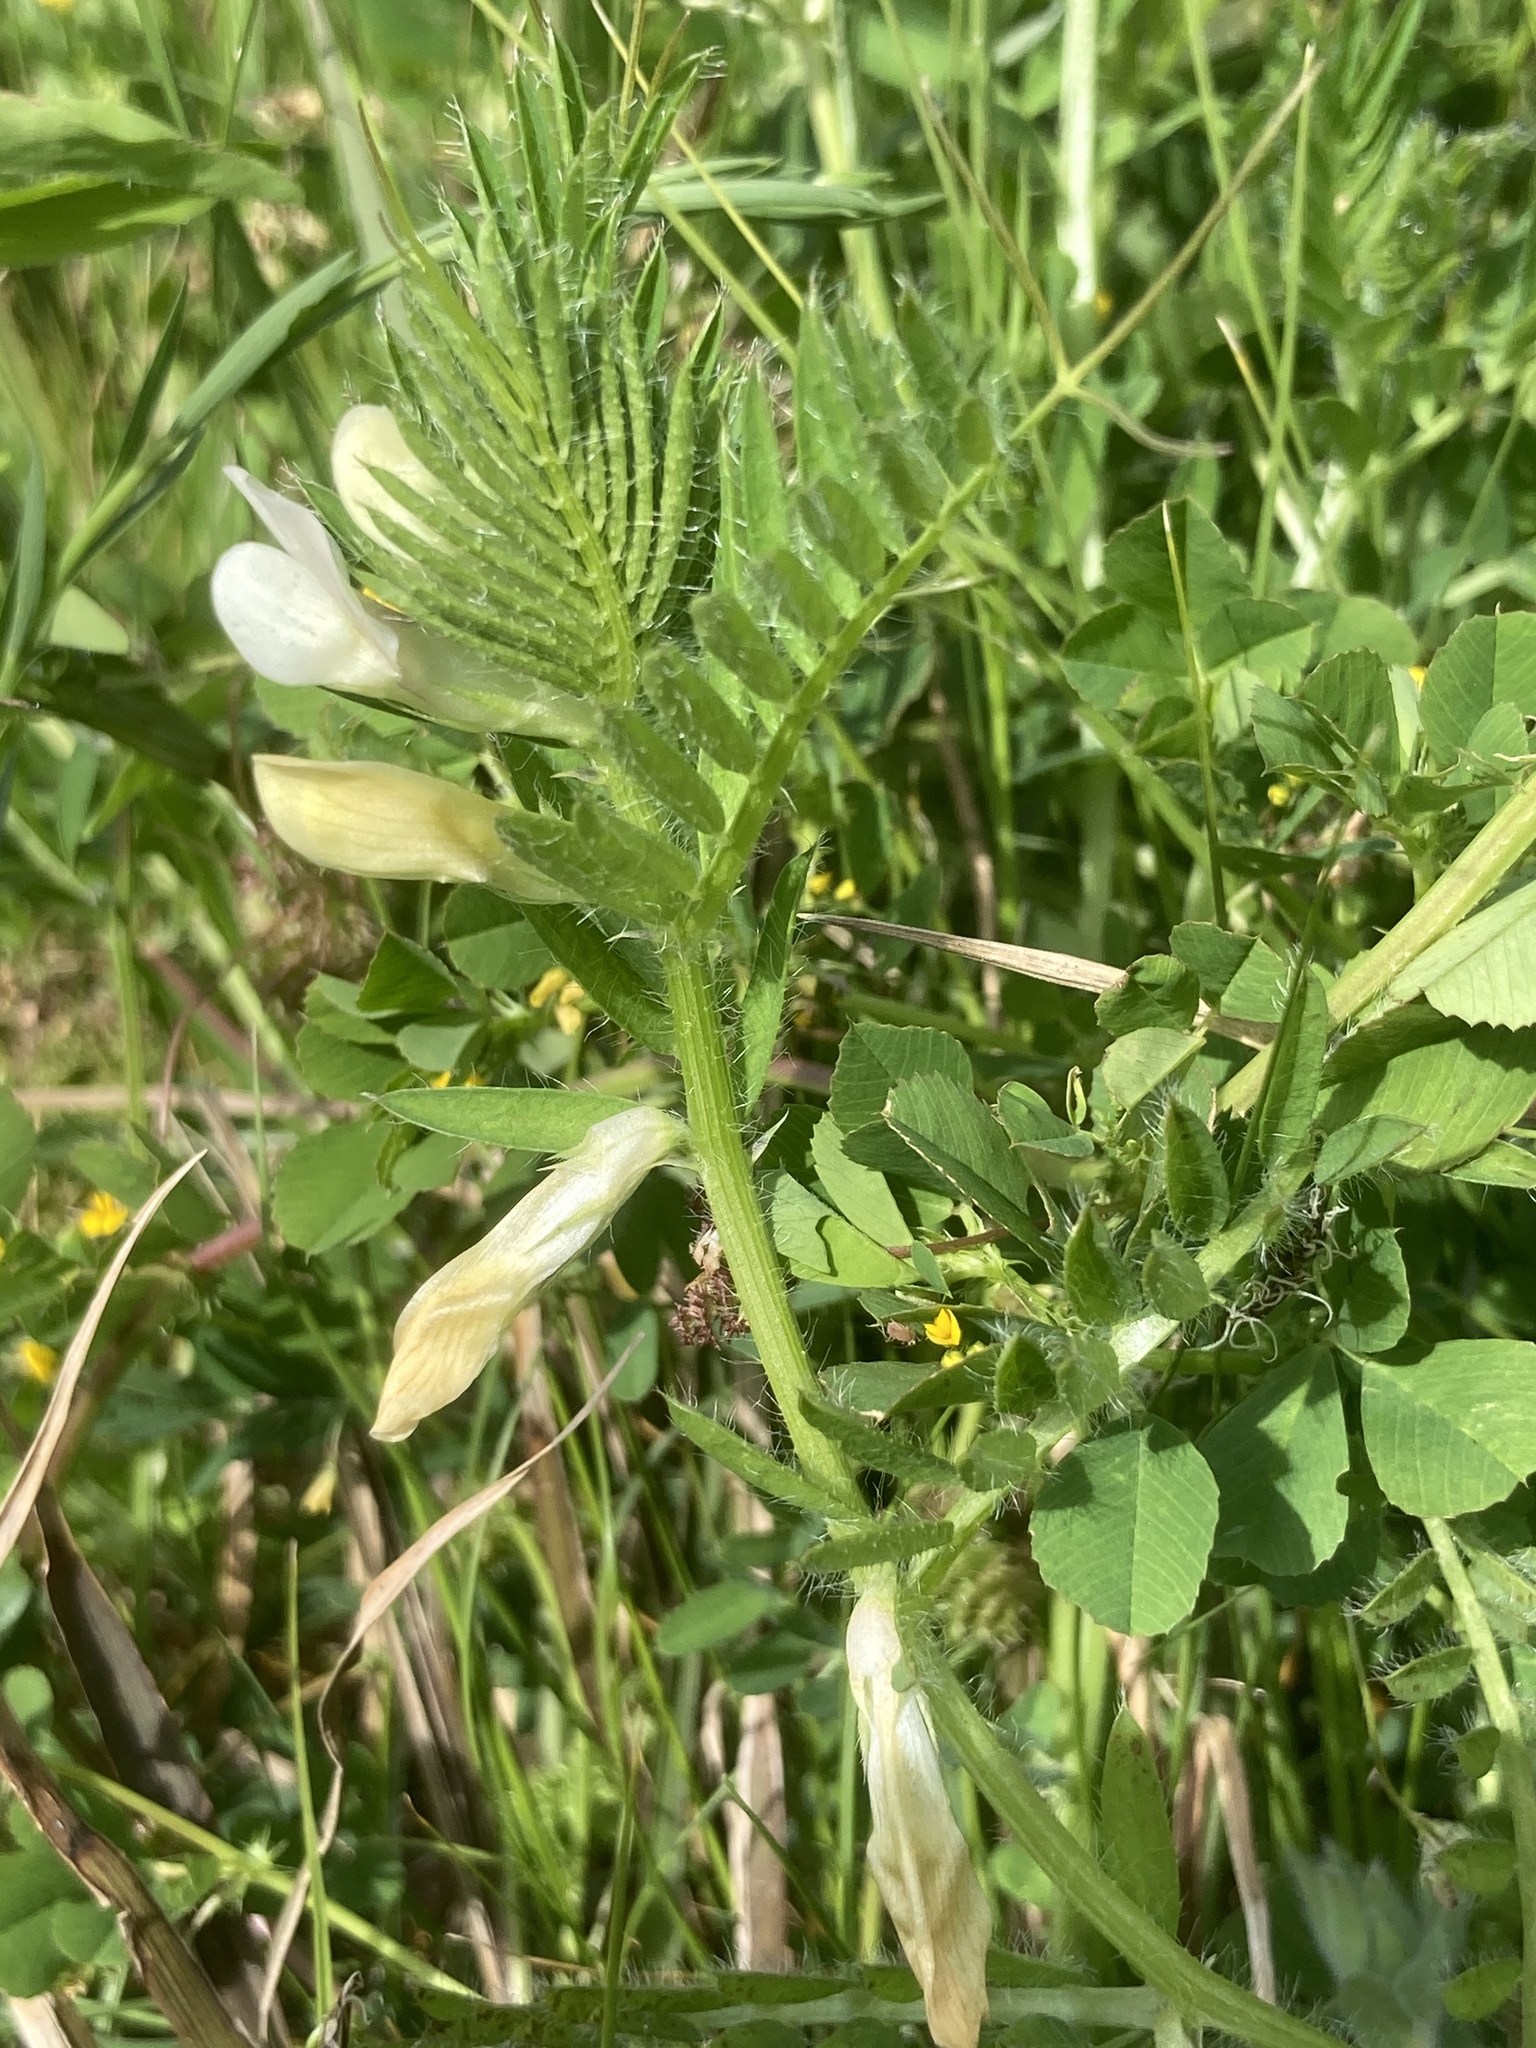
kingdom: Plantae
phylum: Tracheophyta
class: Magnoliopsida
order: Fabales
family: Fabaceae
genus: Medicago
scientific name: Medicago
